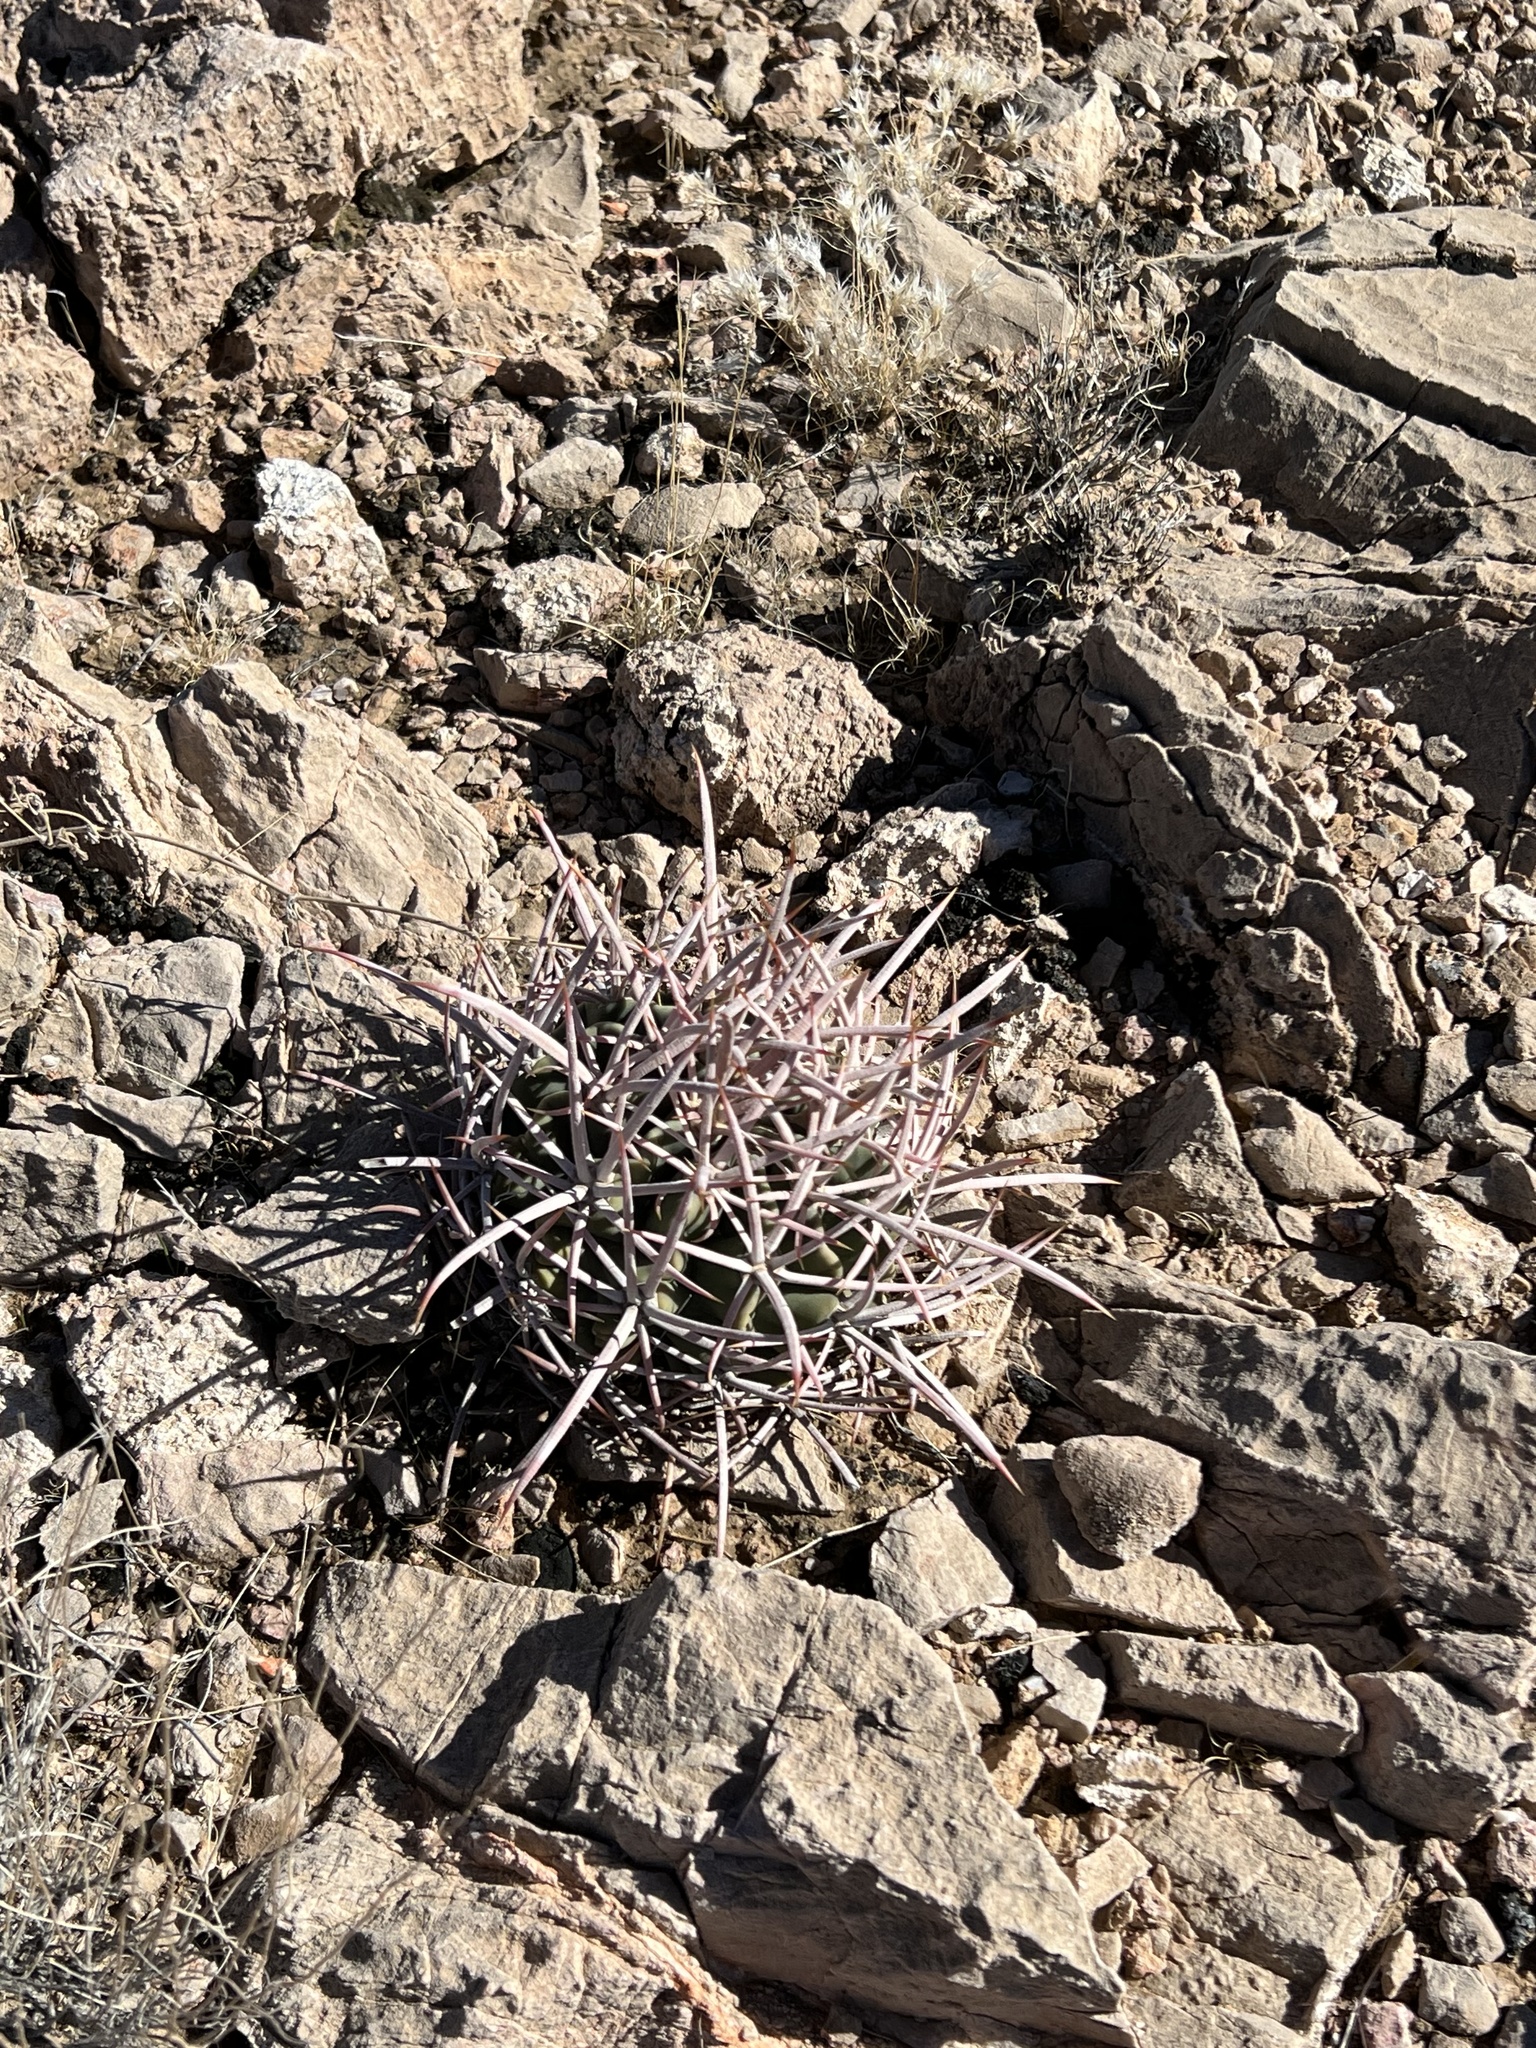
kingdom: Plantae
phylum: Tracheophyta
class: Magnoliopsida
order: Caryophyllales
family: Cactaceae
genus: Echinocactus
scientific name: Echinocactus polycephalus
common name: Cottontop cactus
